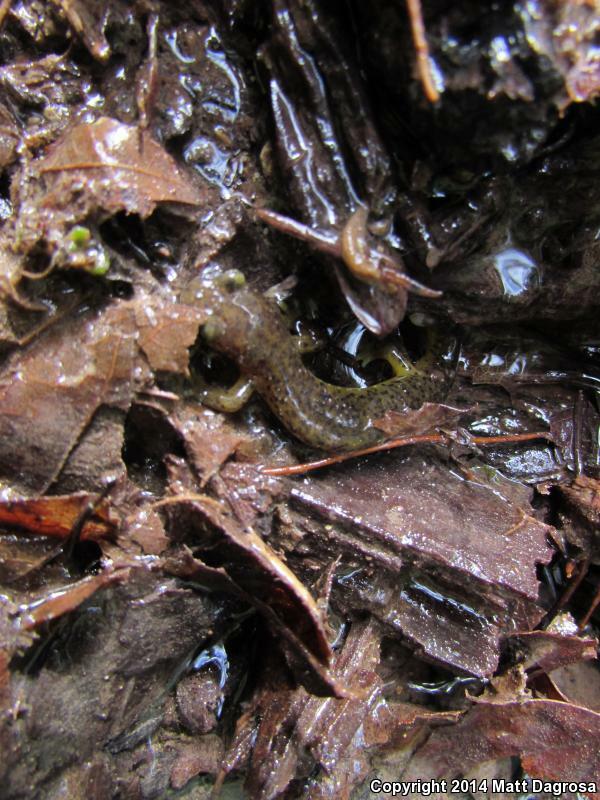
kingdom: Animalia
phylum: Chordata
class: Amphibia
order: Caudata
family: Rhyacotritonidae
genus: Rhyacotriton
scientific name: Rhyacotriton cascadae
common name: Cascade torrent salamander
